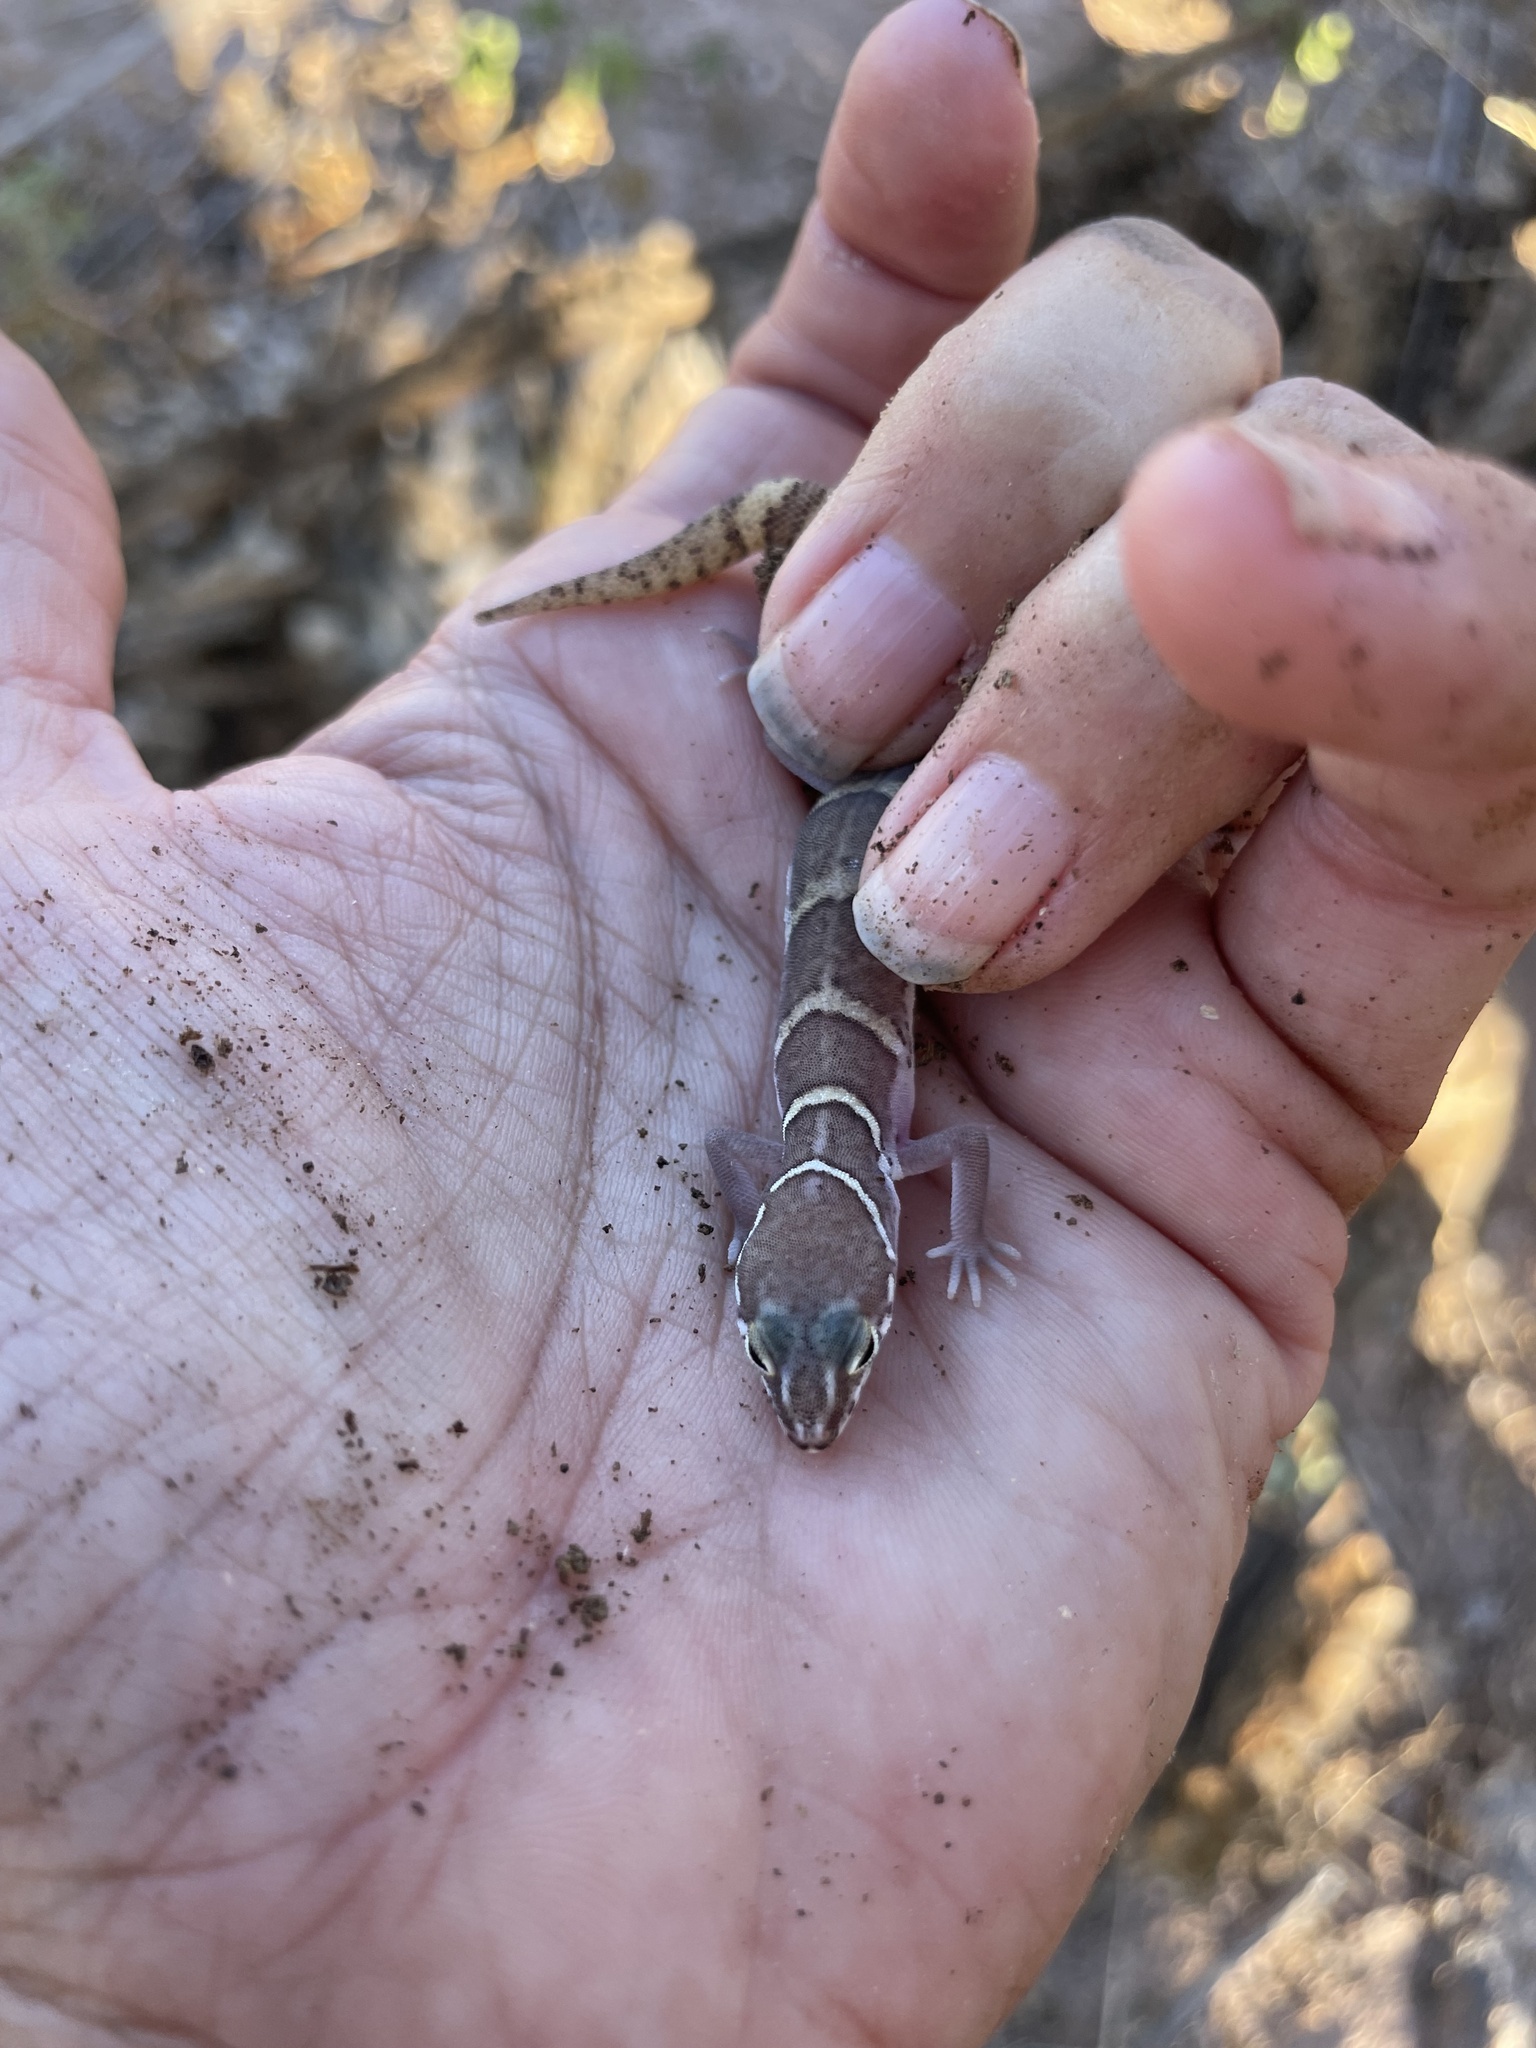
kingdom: Animalia
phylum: Chordata
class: Squamata
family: Eublepharidae
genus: Coleonyx
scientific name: Coleonyx variegatus
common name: Western banded gecko
